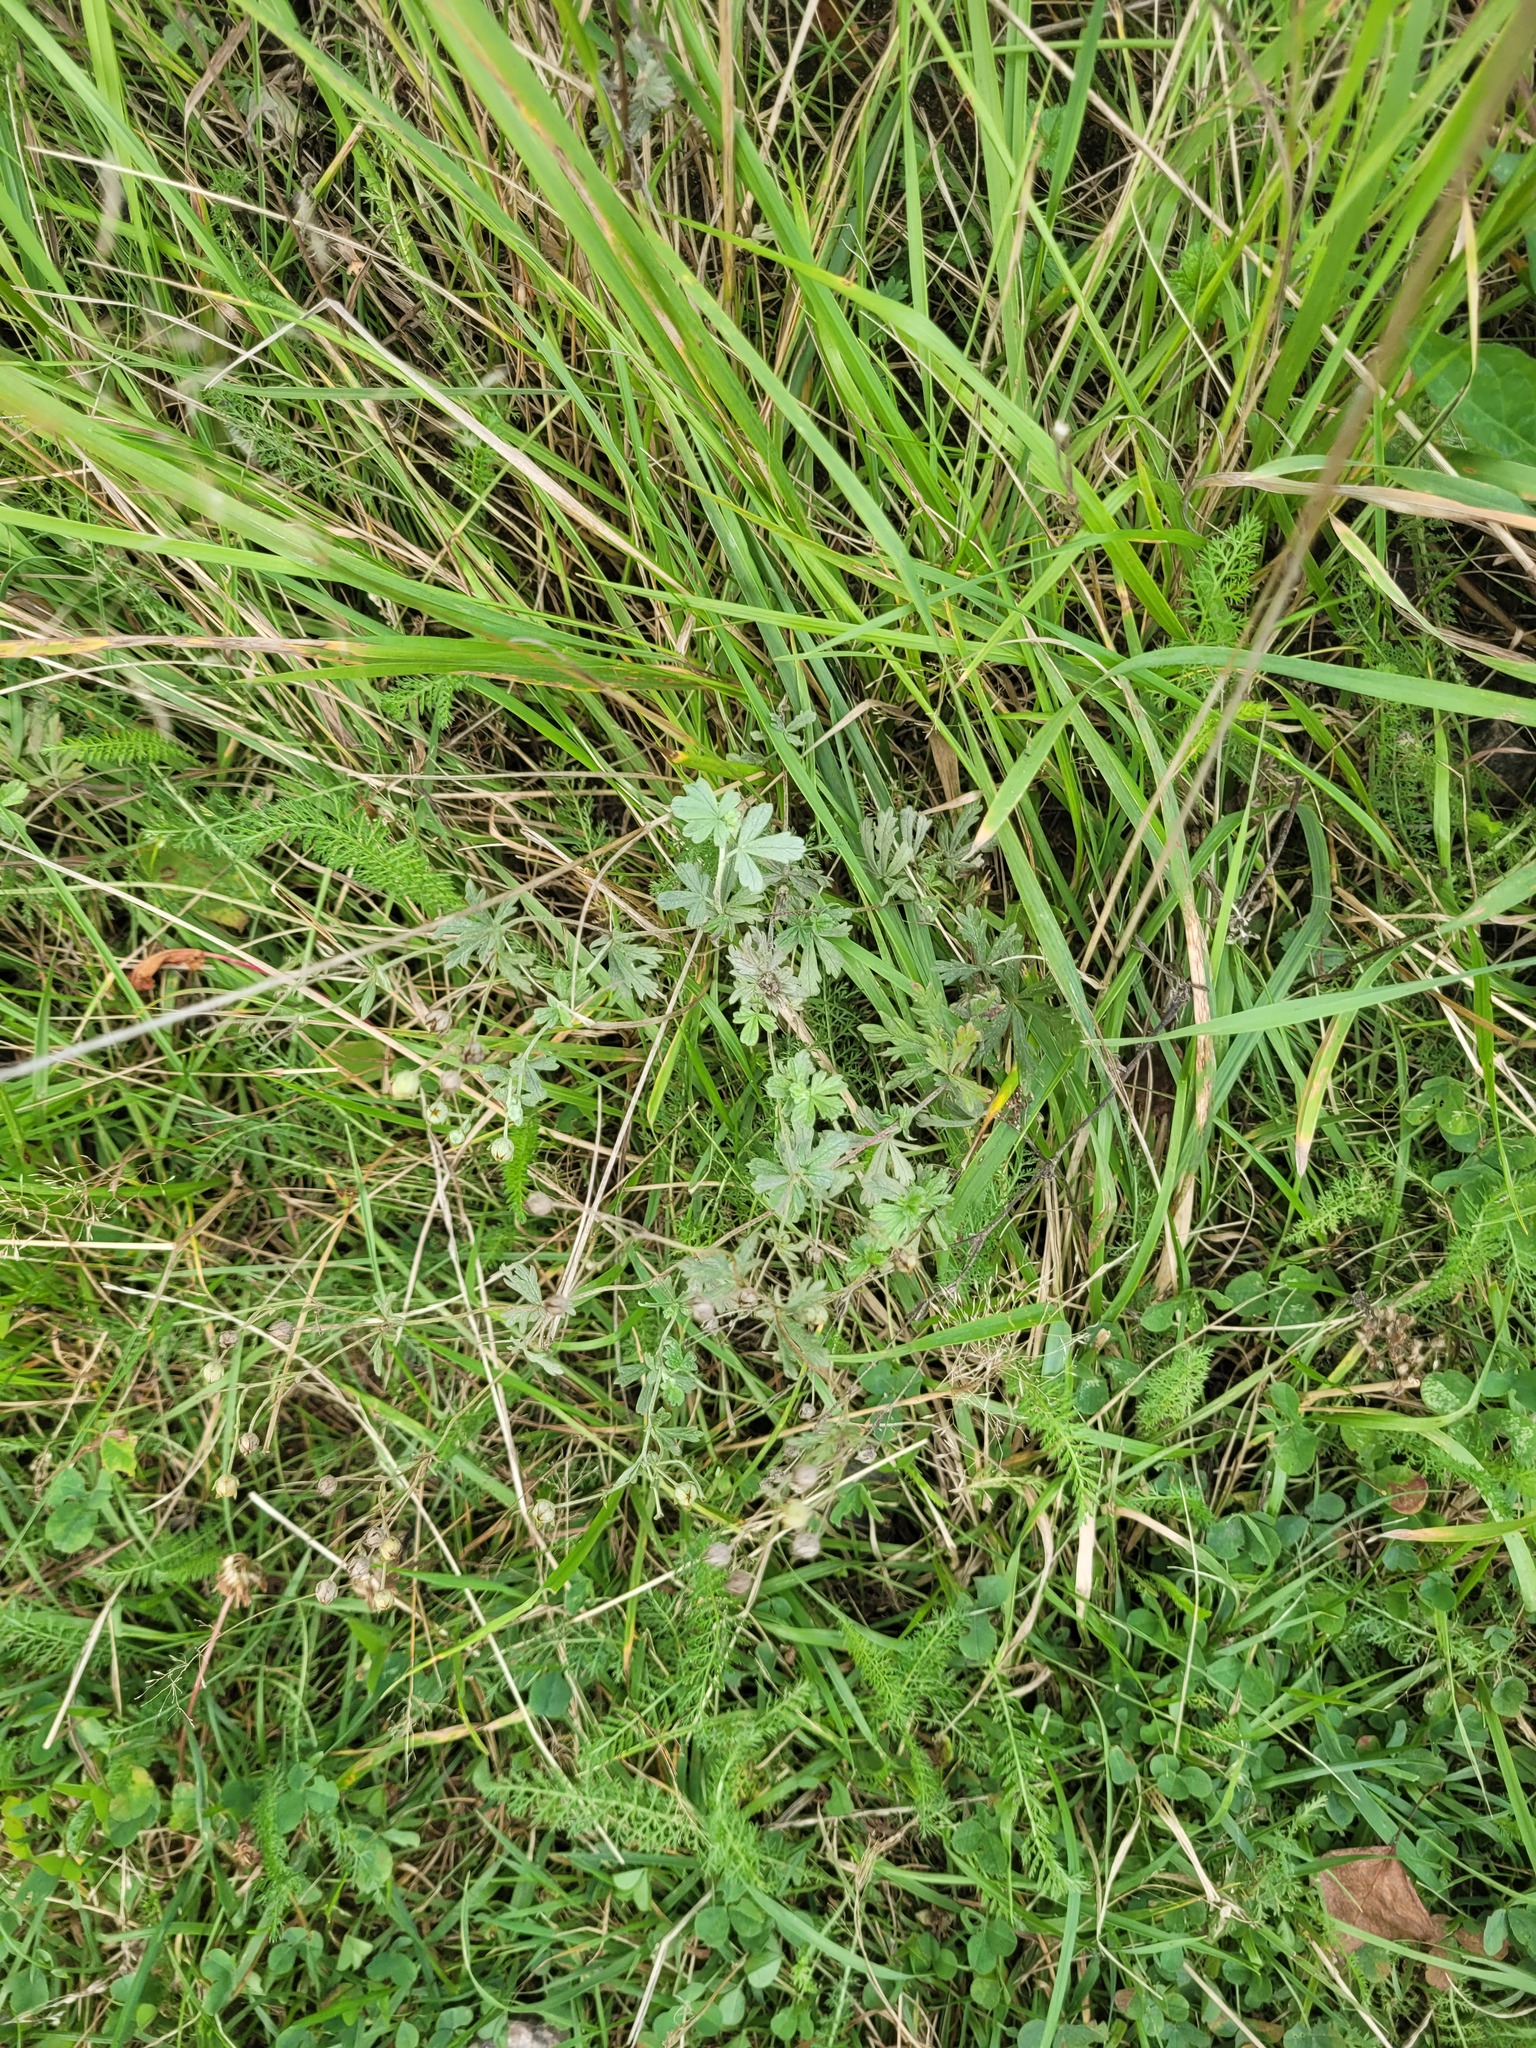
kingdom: Plantae
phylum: Tracheophyta
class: Magnoliopsida
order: Rosales
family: Rosaceae
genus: Potentilla
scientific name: Potentilla argentea
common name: Hoary cinquefoil
